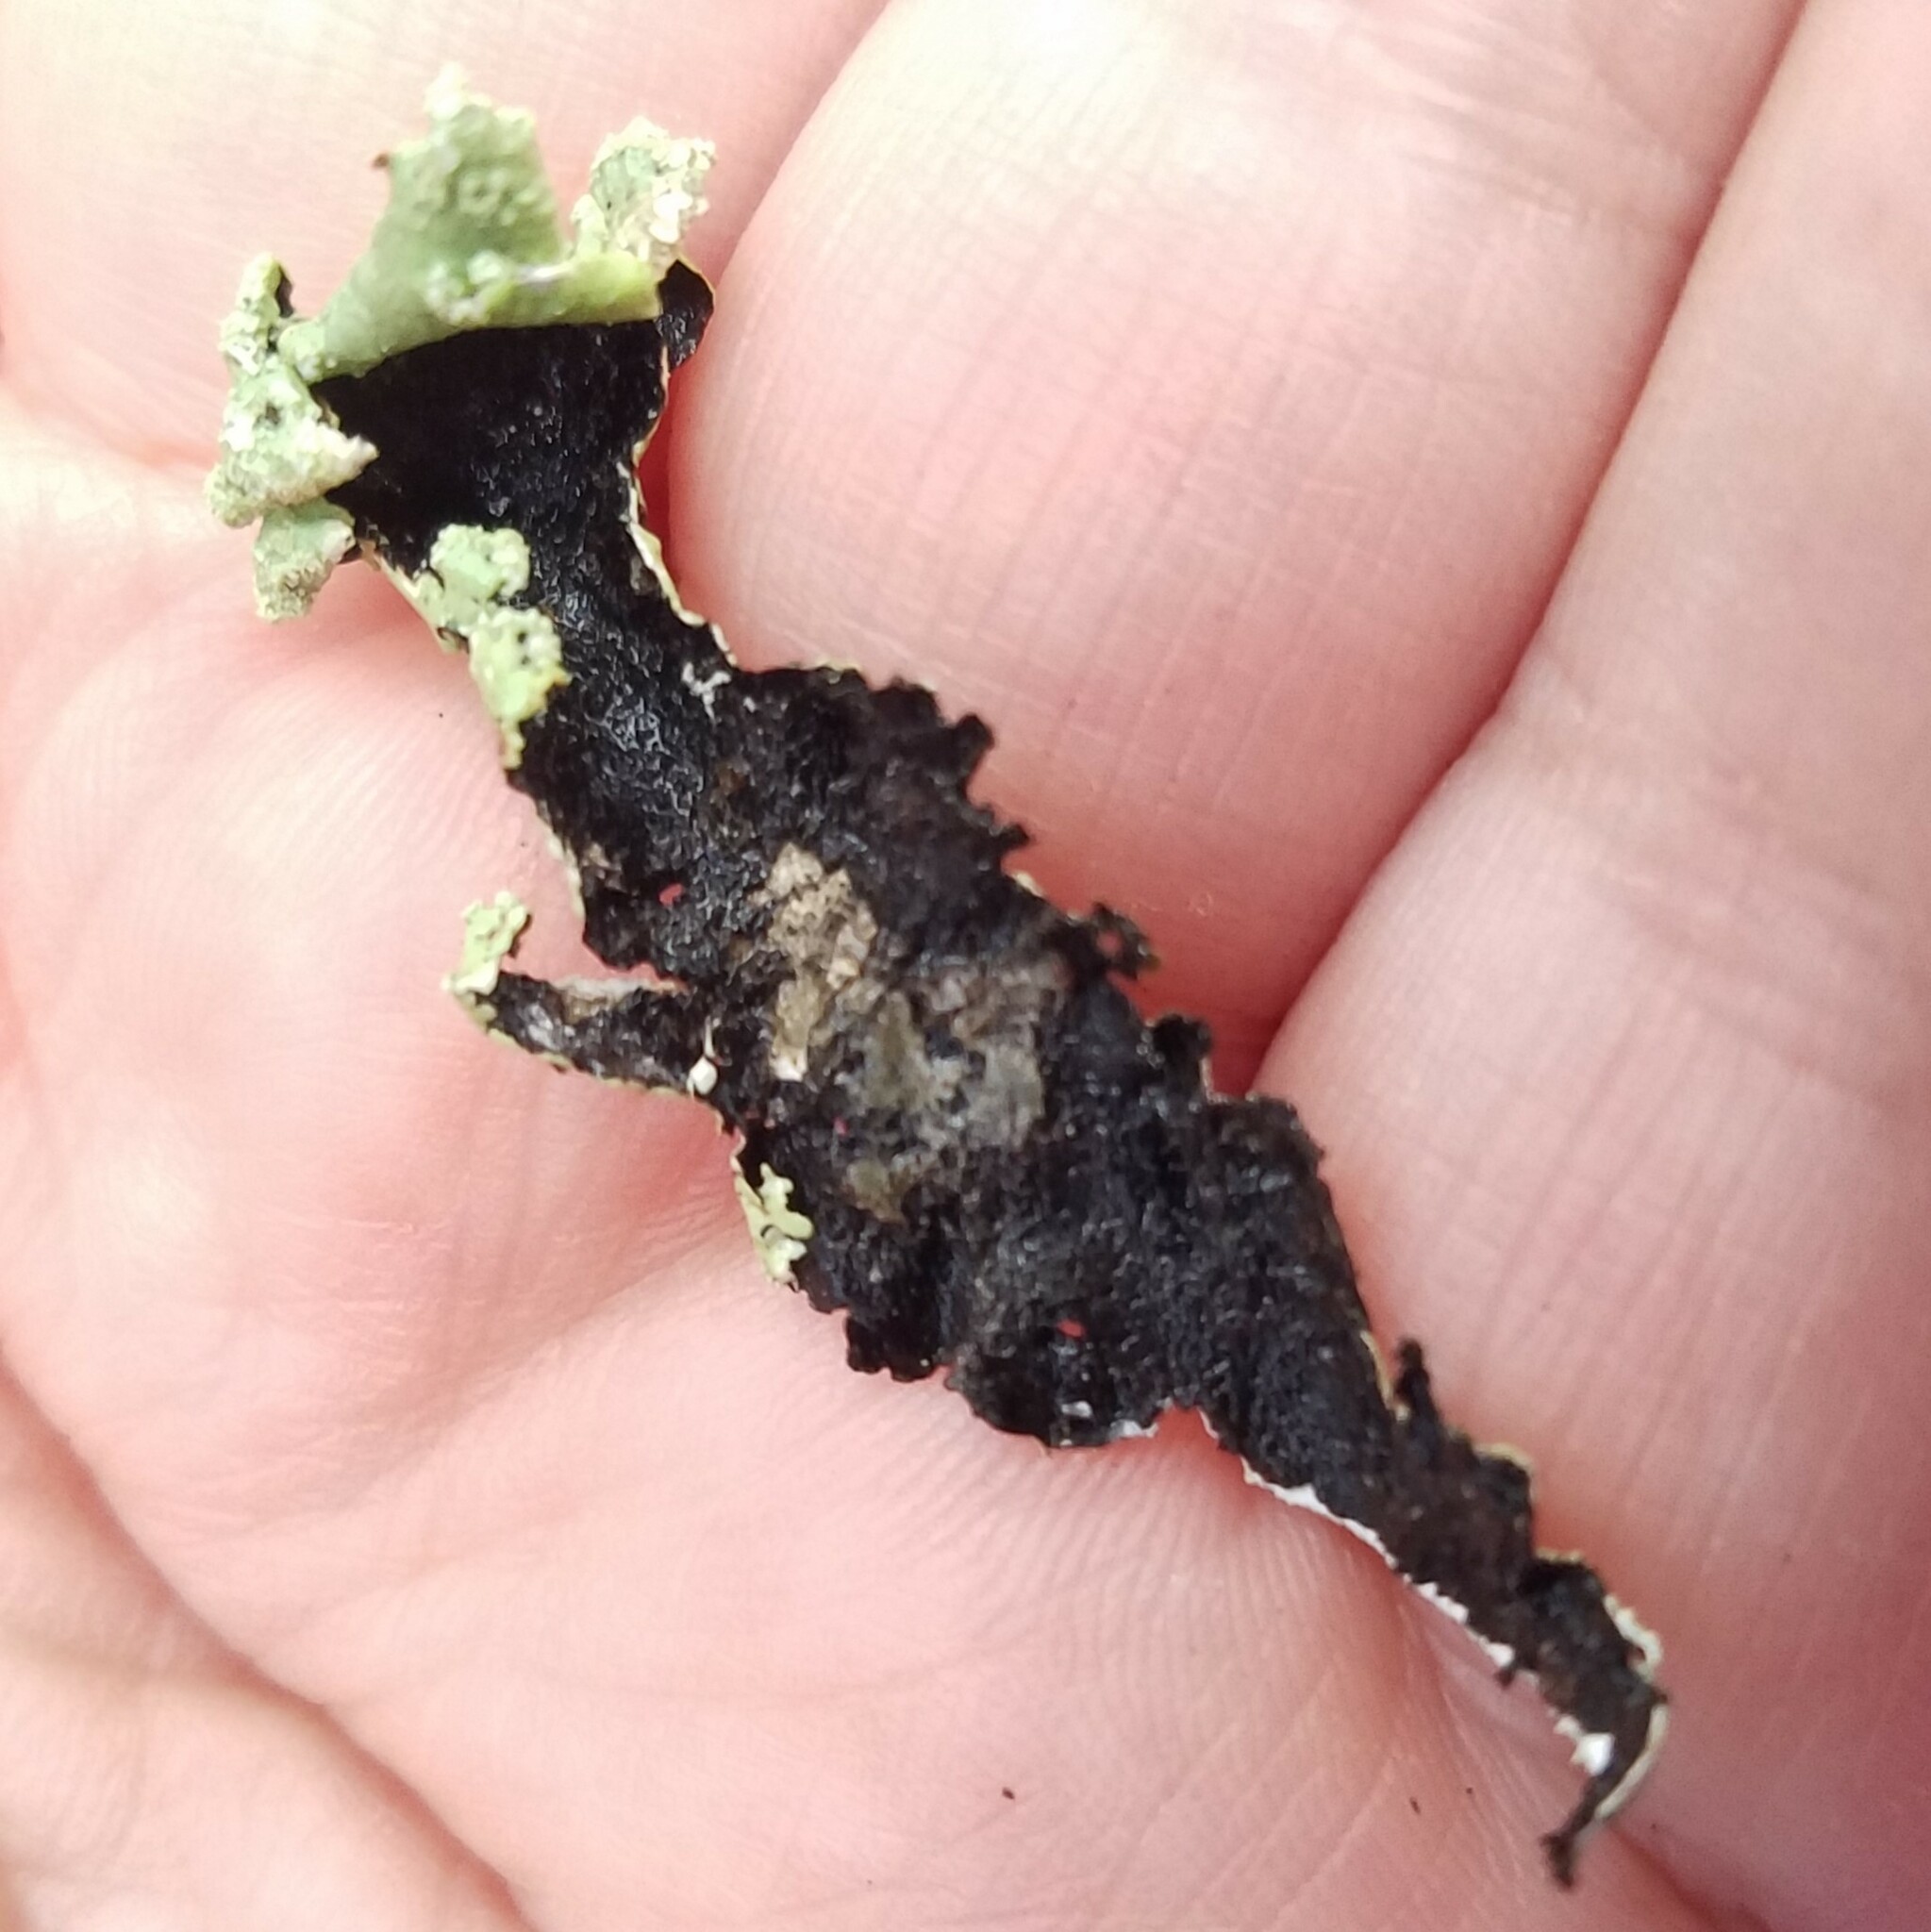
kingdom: Fungi
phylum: Ascomycota
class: Lecanoromycetes
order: Lecanorales
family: Parmeliaceae
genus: Flavoparmelia
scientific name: Flavoparmelia caperata
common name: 40-mile per hour lichen
